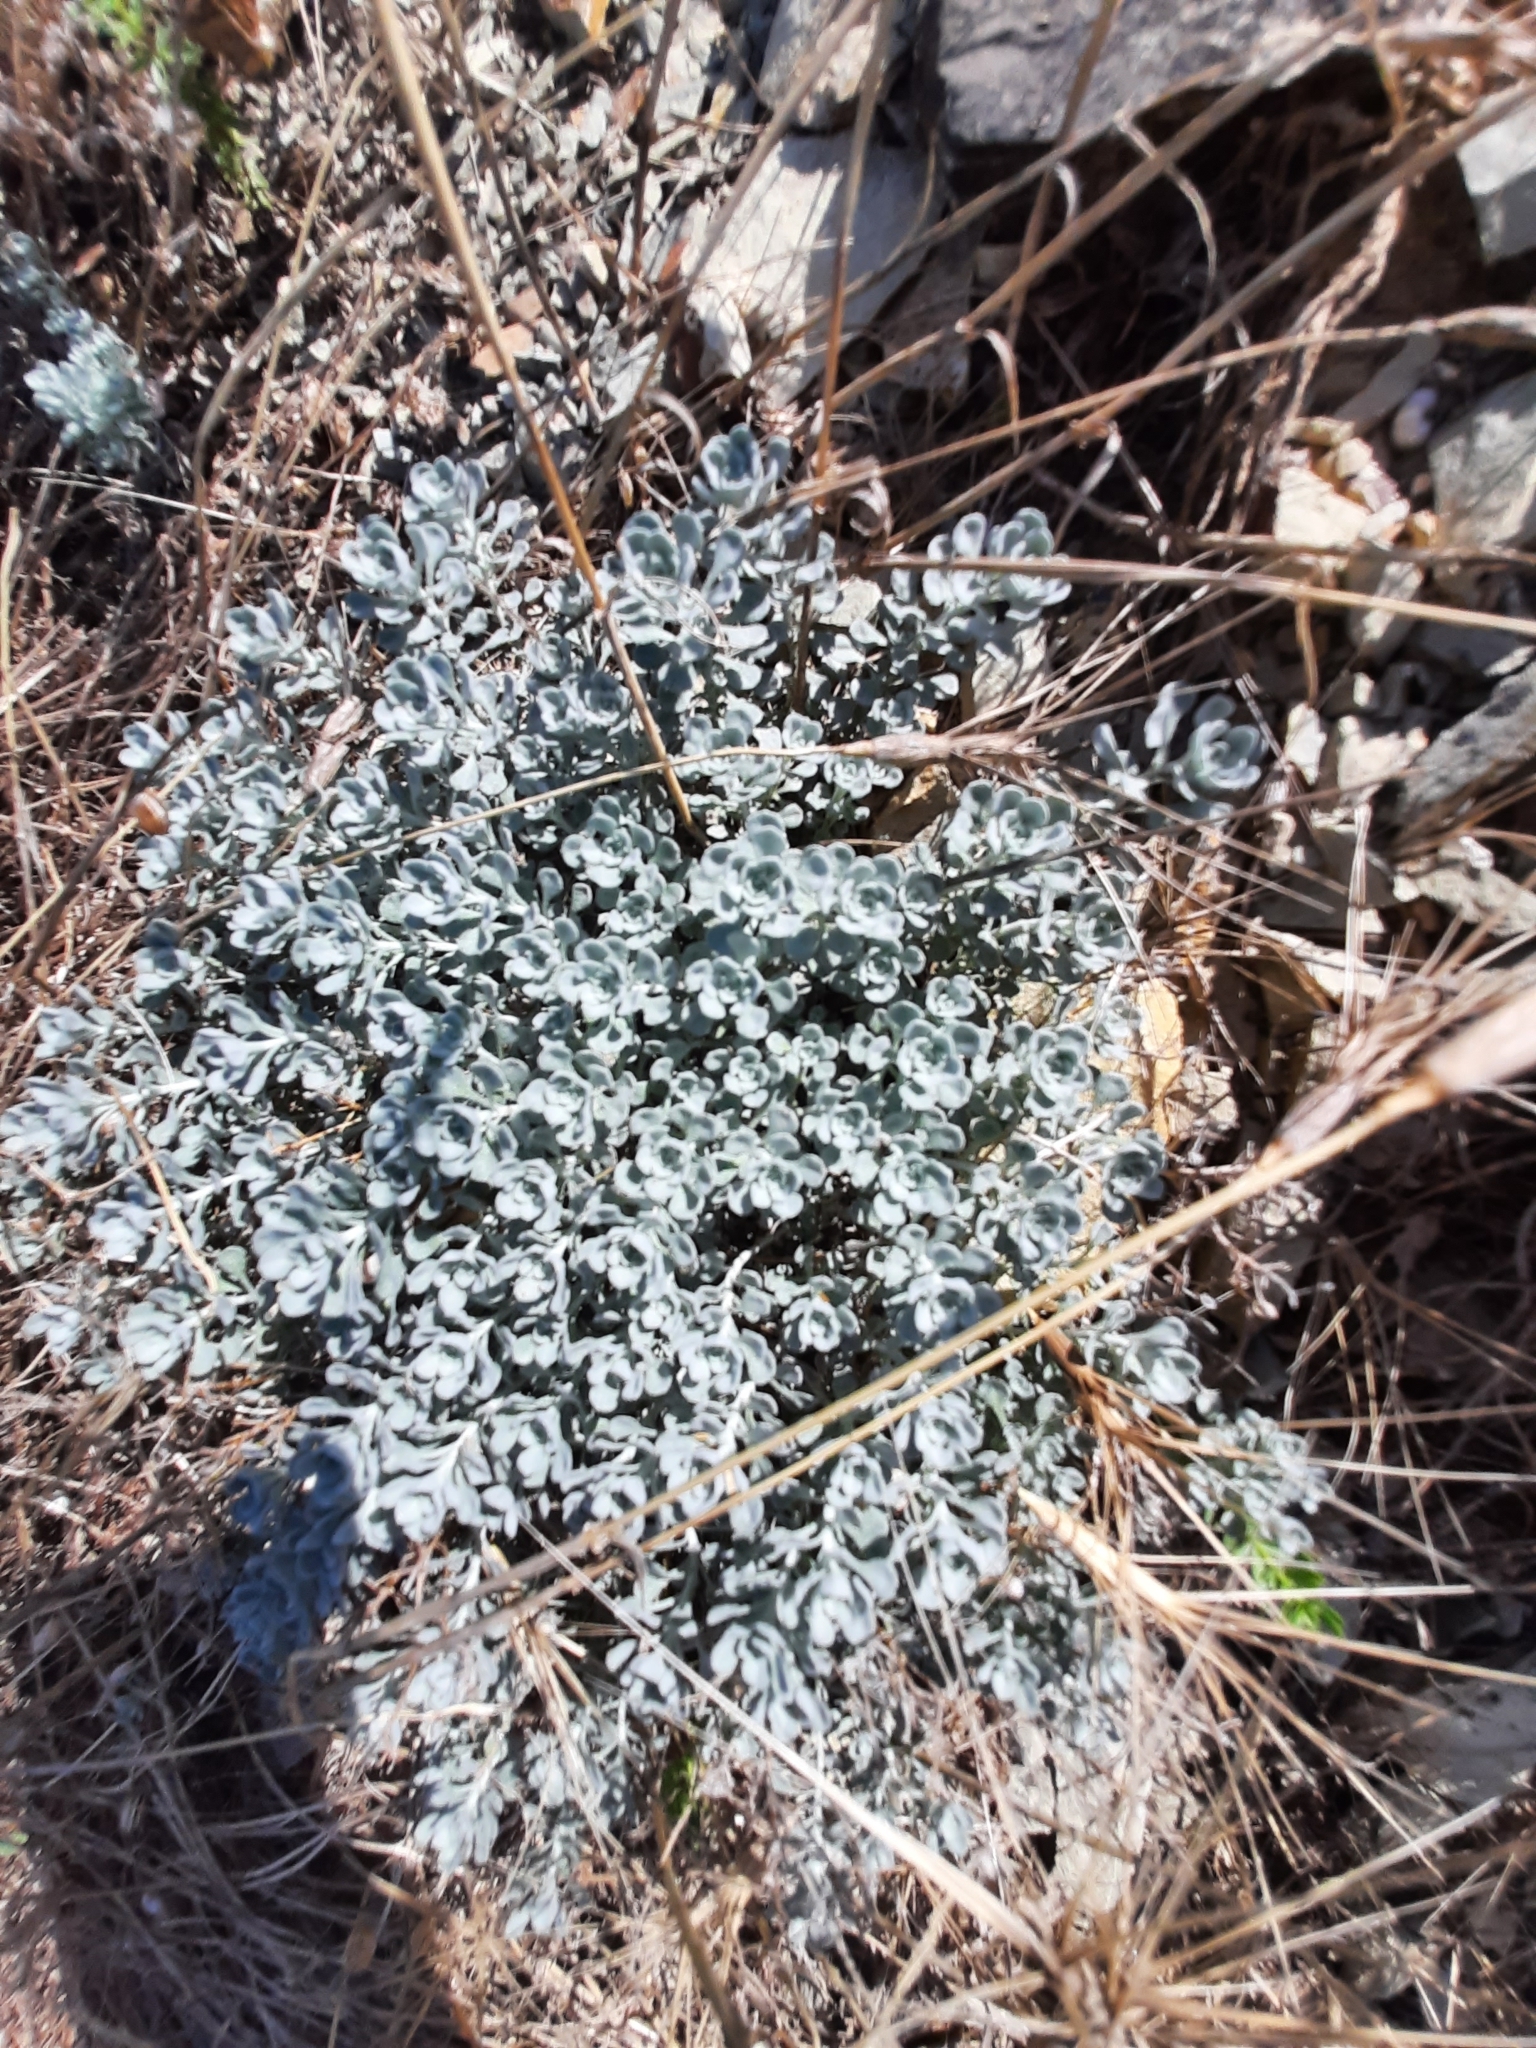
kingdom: Plantae
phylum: Tracheophyta
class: Magnoliopsida
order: Brassicales
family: Brassicaceae
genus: Odontarrhena
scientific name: Odontarrhena obtusifolia
